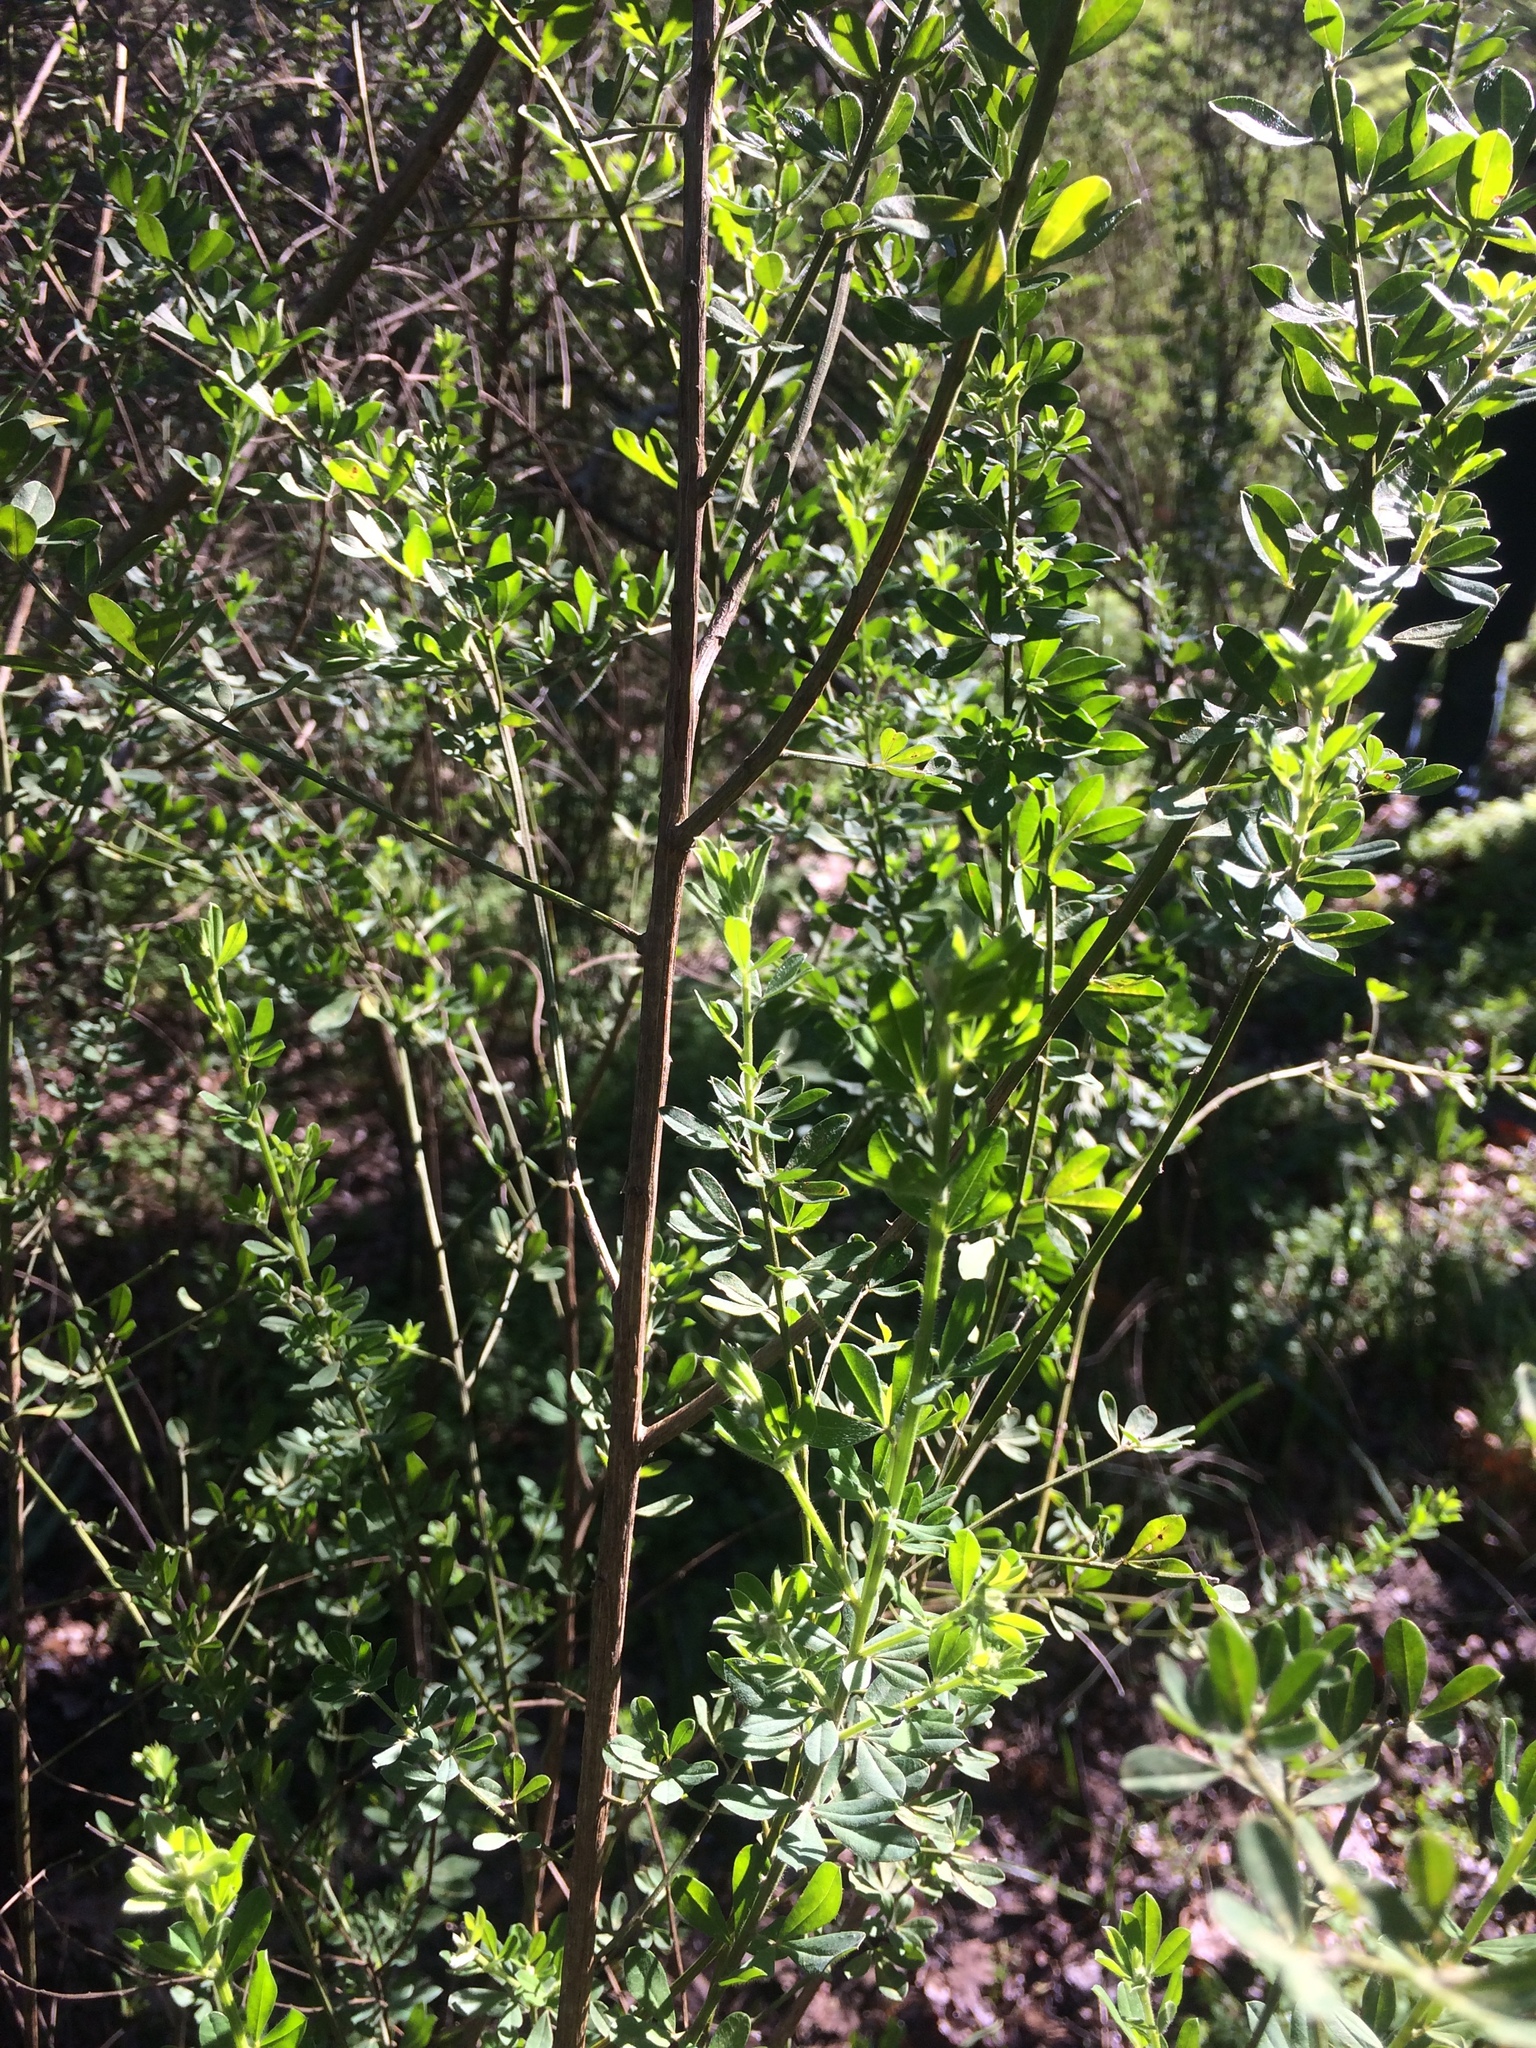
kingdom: Plantae
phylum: Tracheophyta
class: Magnoliopsida
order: Fabales
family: Fabaceae
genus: Genista
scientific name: Genista monspessulana
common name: Montpellier broom
